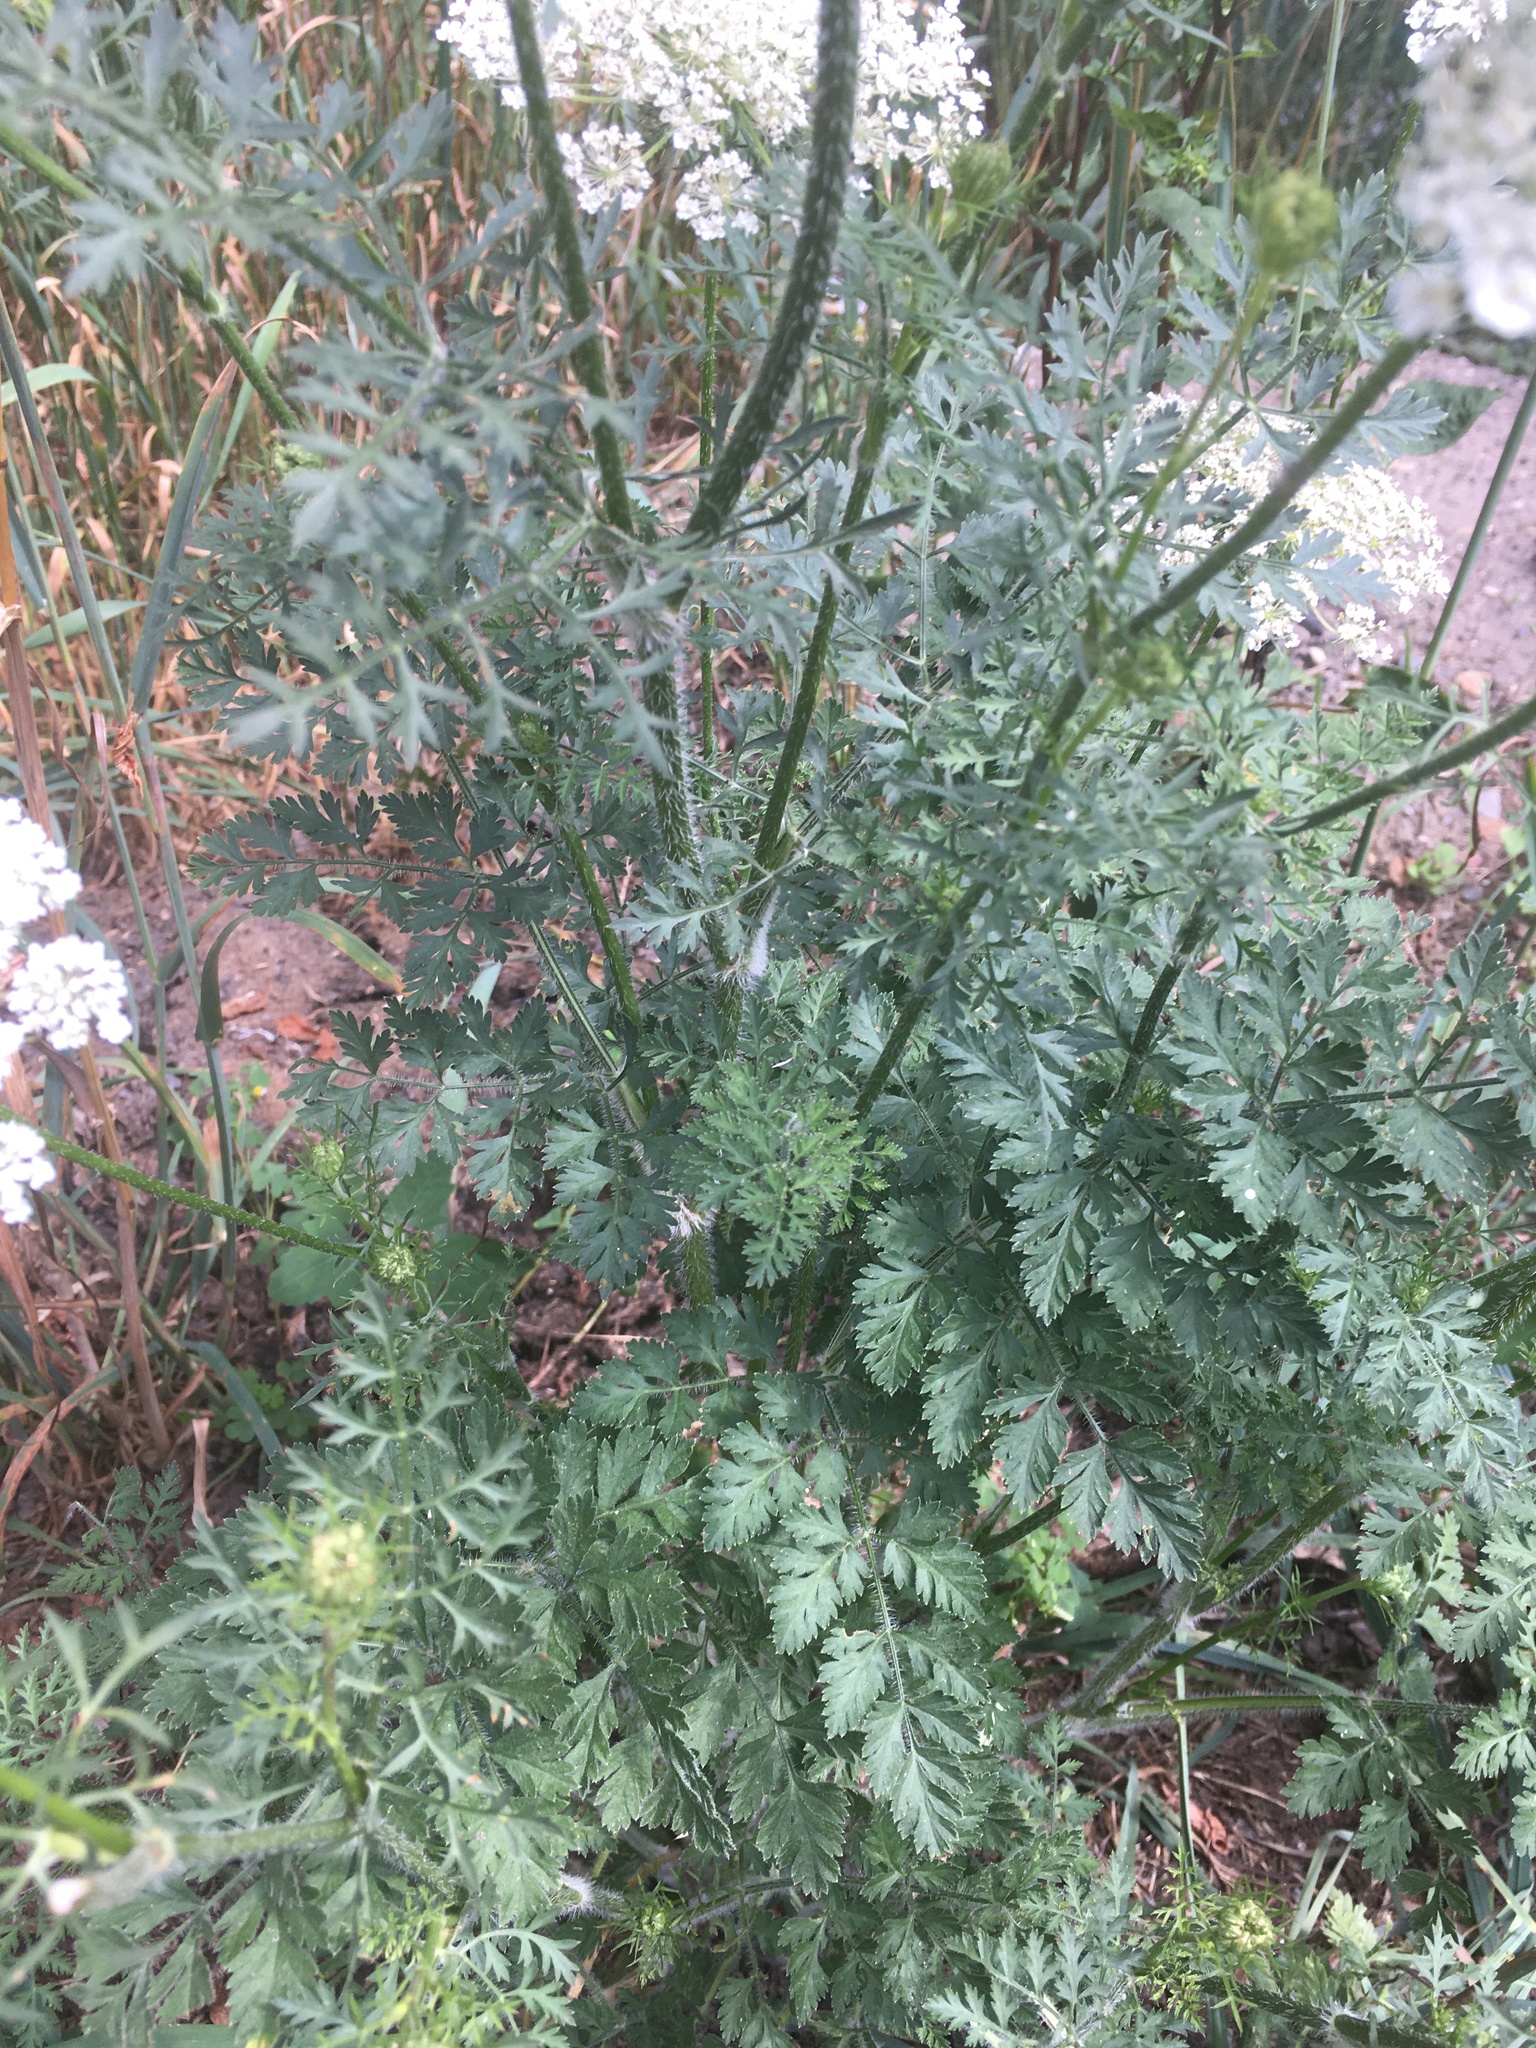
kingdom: Plantae
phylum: Tracheophyta
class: Magnoliopsida
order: Apiales
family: Apiaceae
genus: Daucus
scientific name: Daucus carota
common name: Wild carrot
